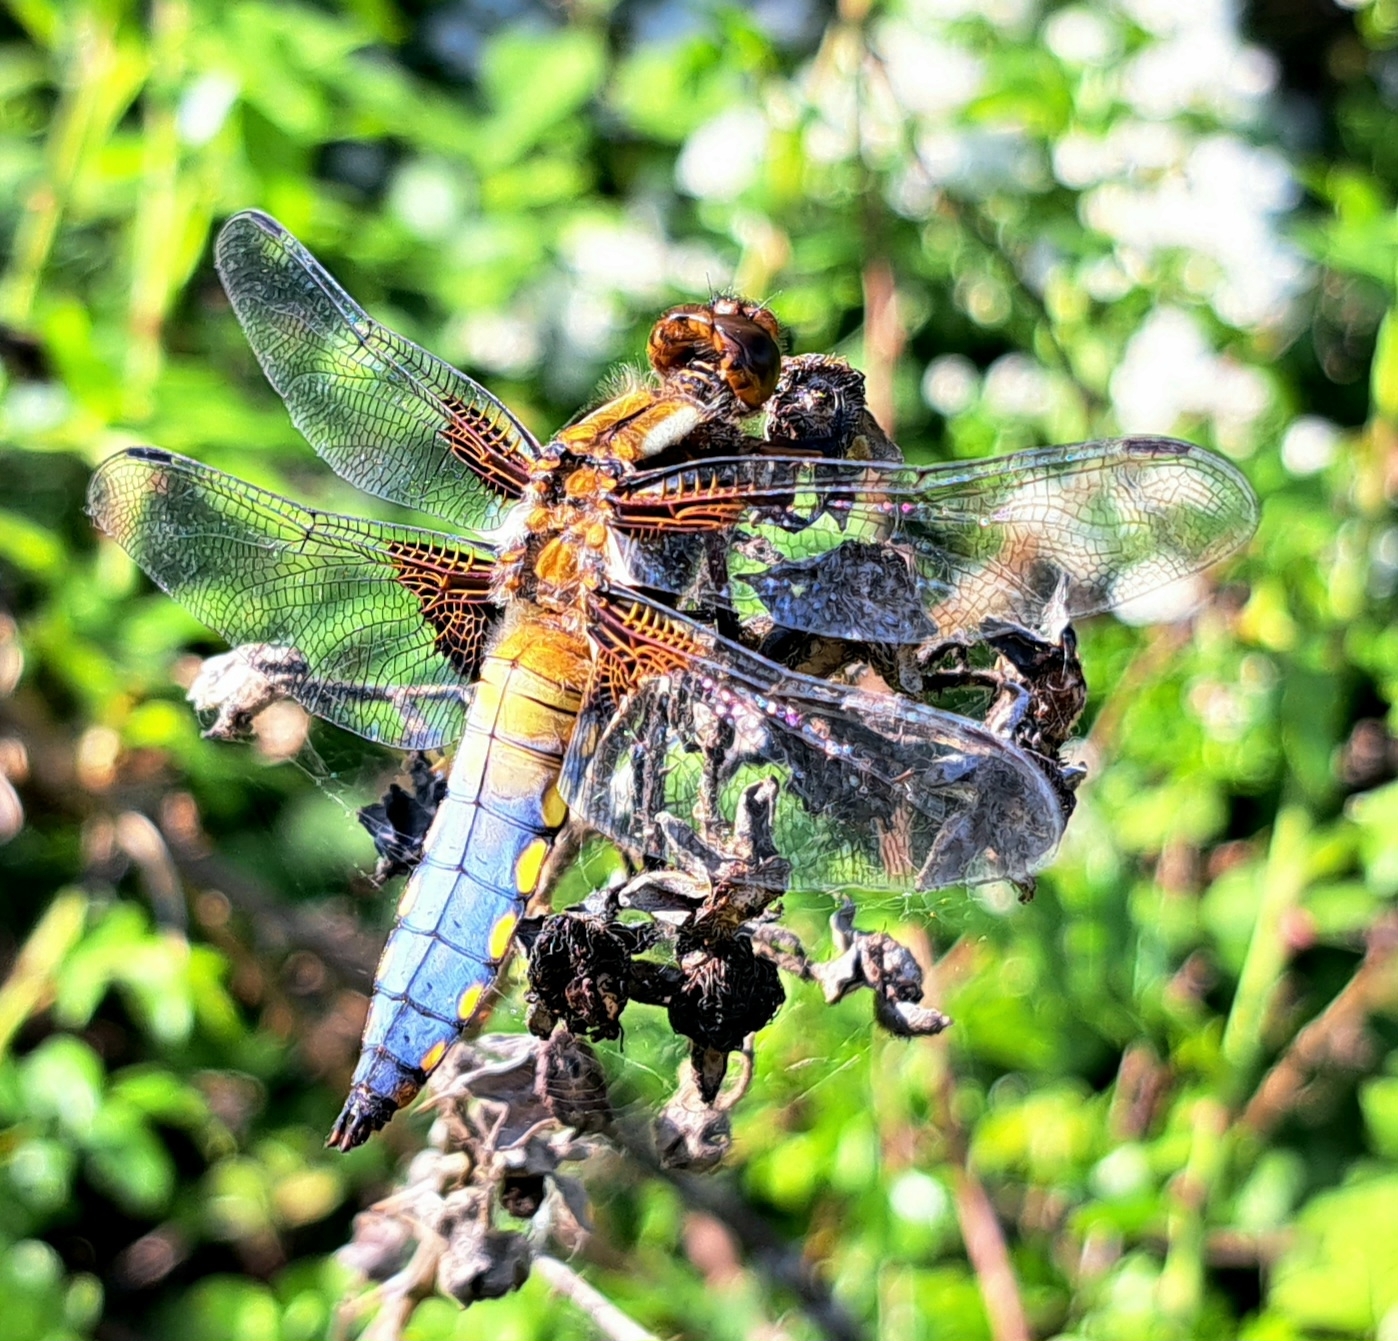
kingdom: Animalia
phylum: Arthropoda
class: Insecta
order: Odonata
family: Libellulidae
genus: Libellula
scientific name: Libellula depressa
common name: Broad-bodied chaser
